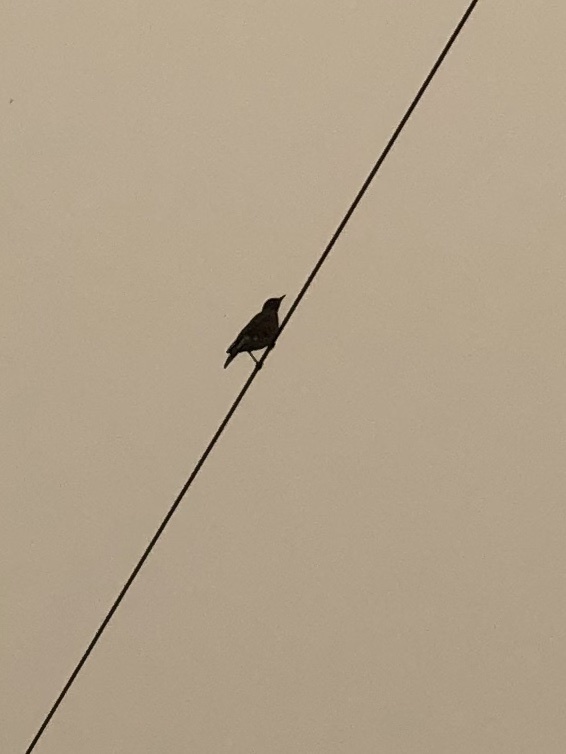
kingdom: Animalia
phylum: Chordata
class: Aves
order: Passeriformes
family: Turdidae
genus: Turdus
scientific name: Turdus migratorius
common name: American robin
